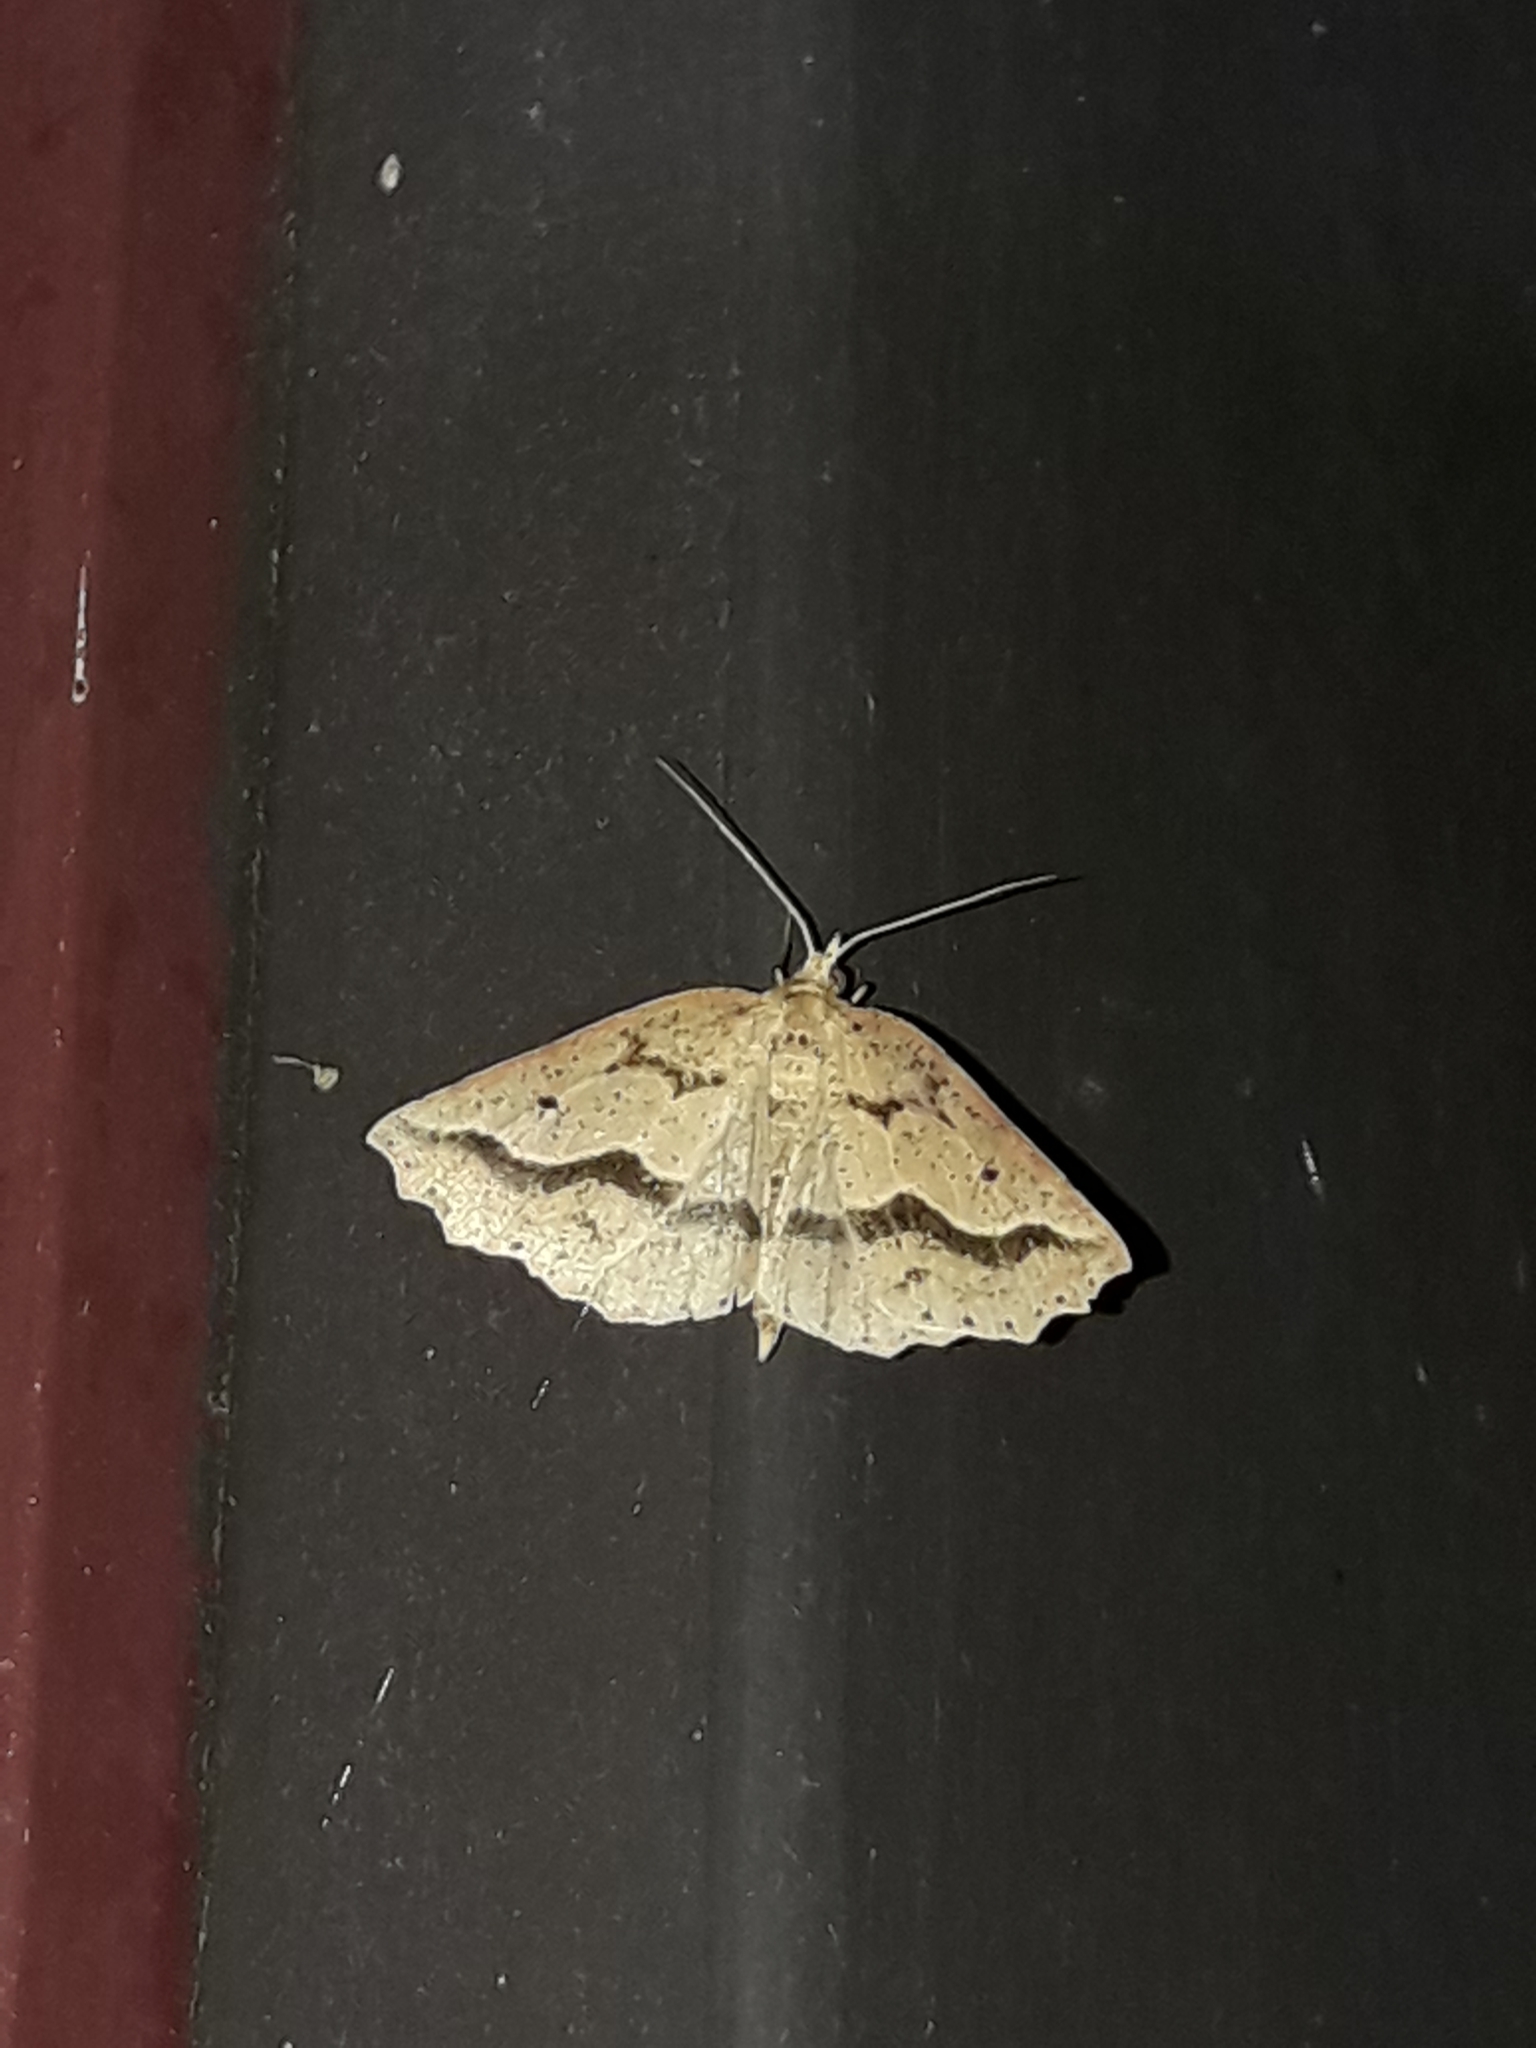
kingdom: Animalia
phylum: Arthropoda
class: Insecta
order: Lepidoptera
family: Geometridae
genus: Ischalis
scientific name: Ischalis variabilis
